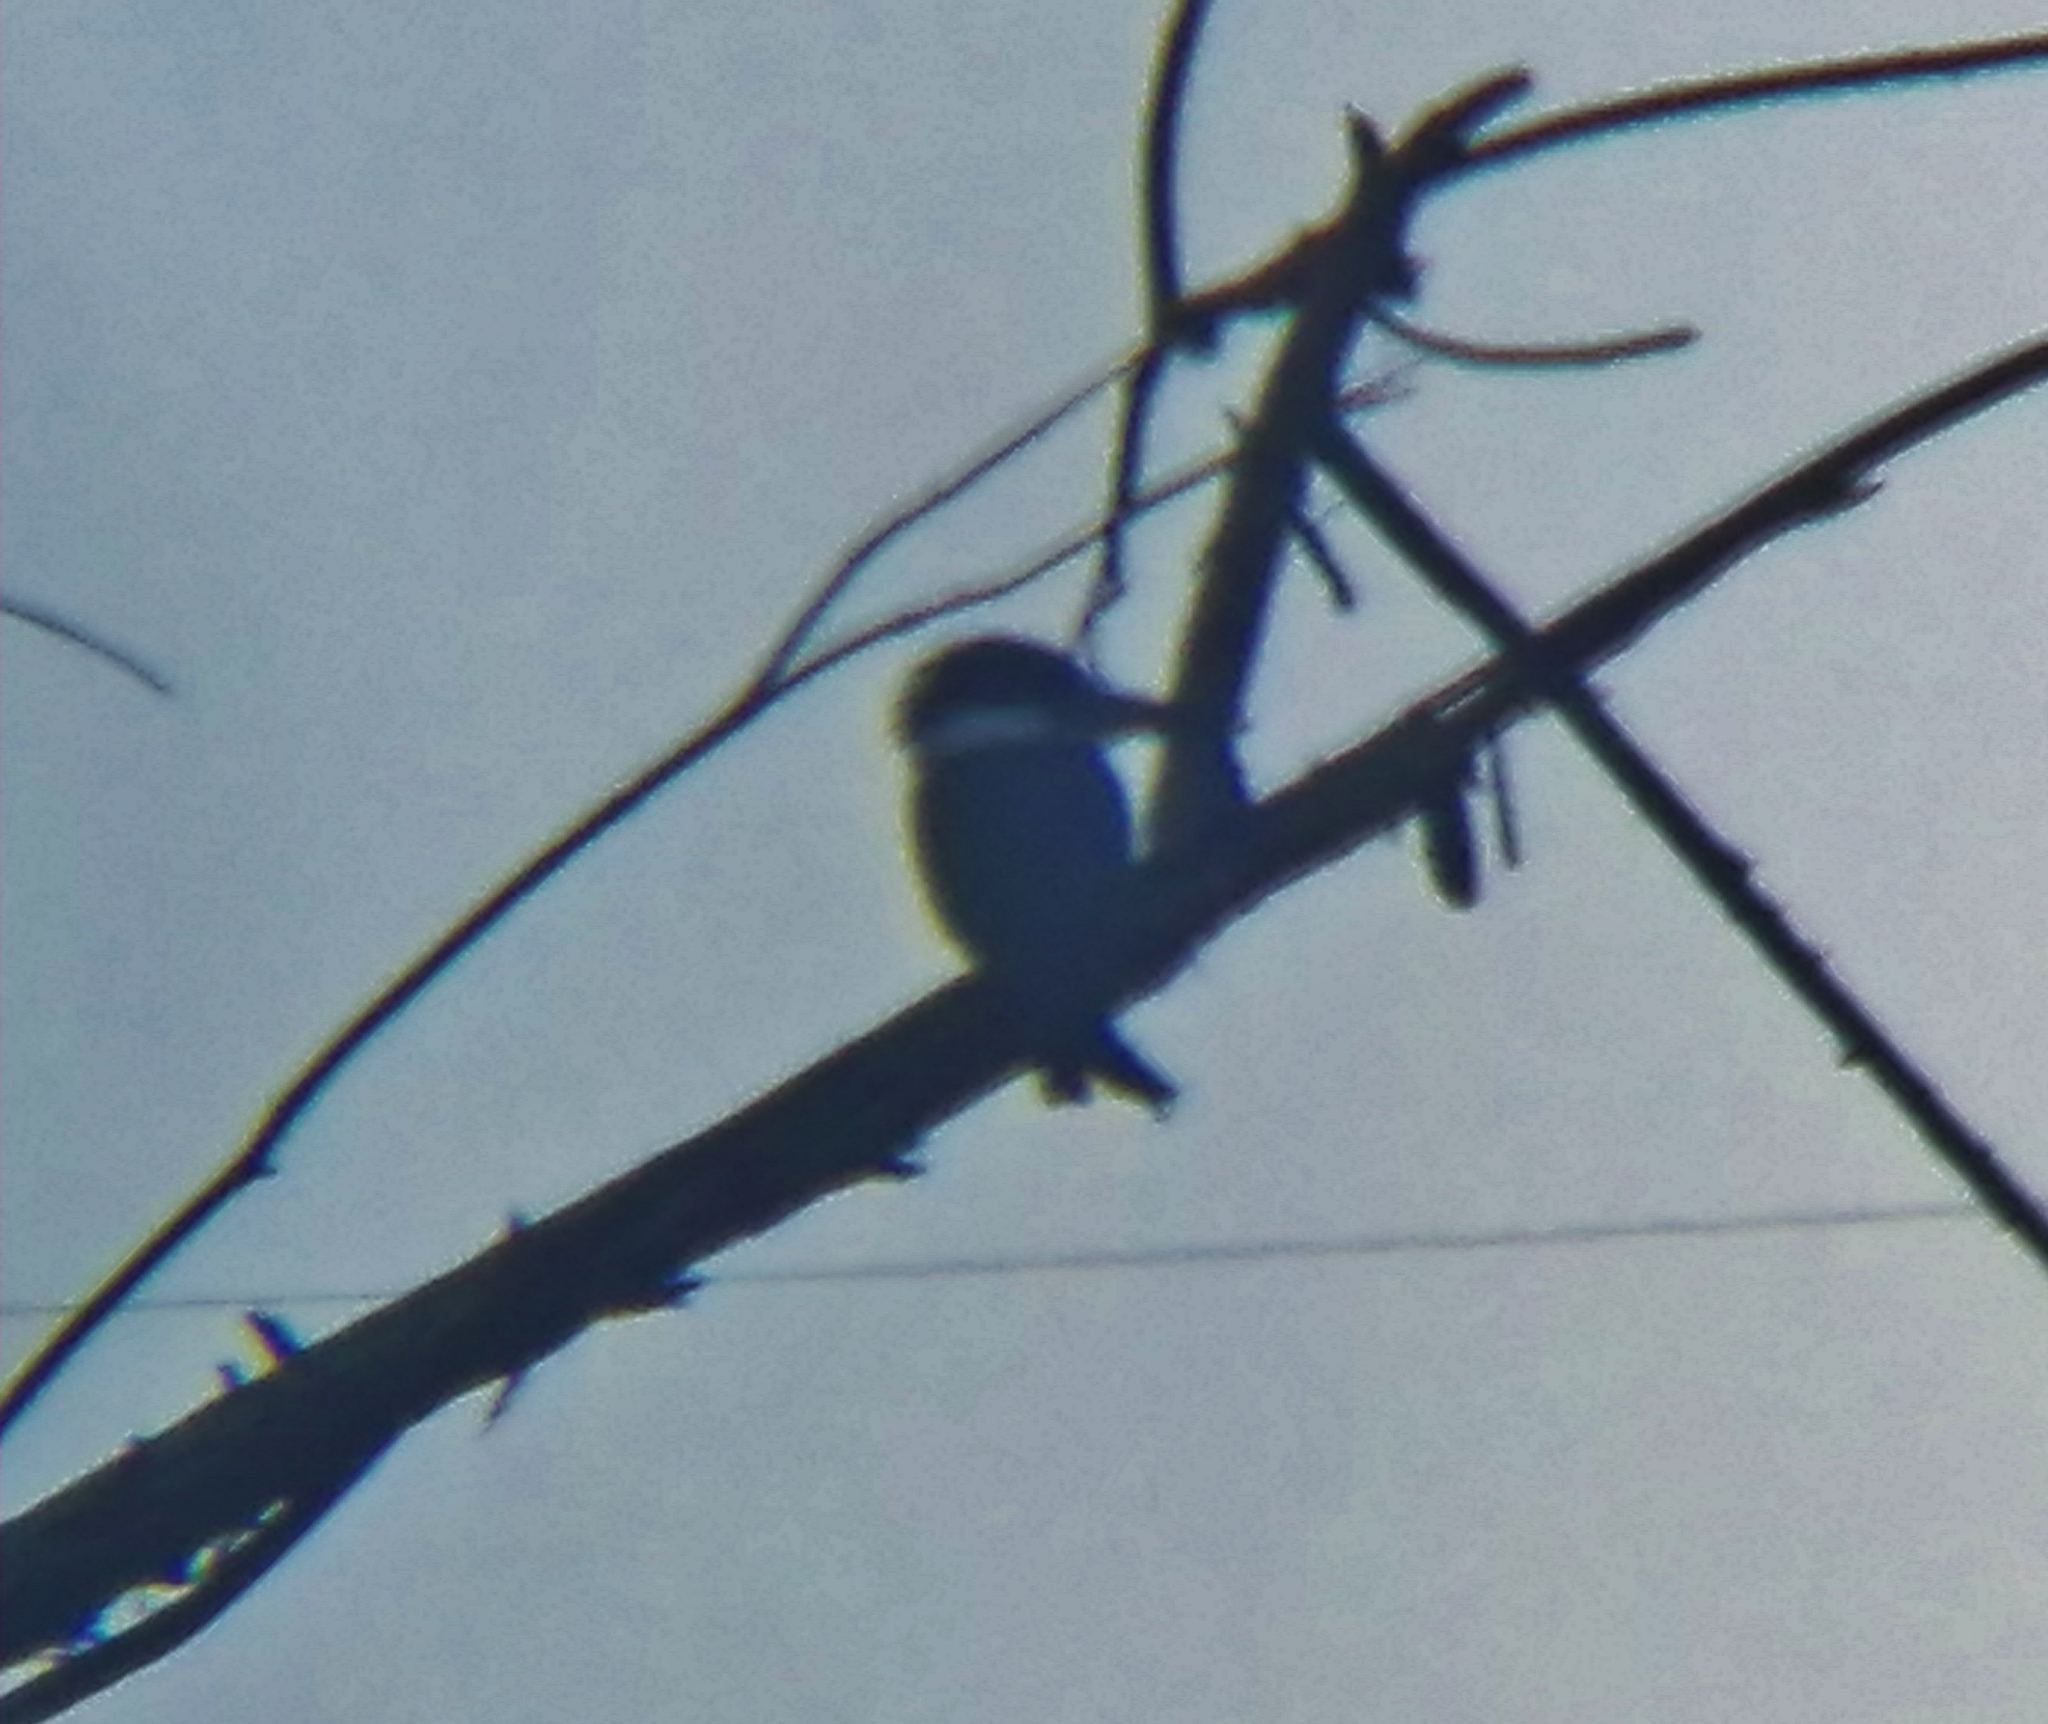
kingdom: Animalia
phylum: Chordata
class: Aves
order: Coraciiformes
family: Alcedinidae
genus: Megaceryle
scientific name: Megaceryle alcyon
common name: Belted kingfisher
